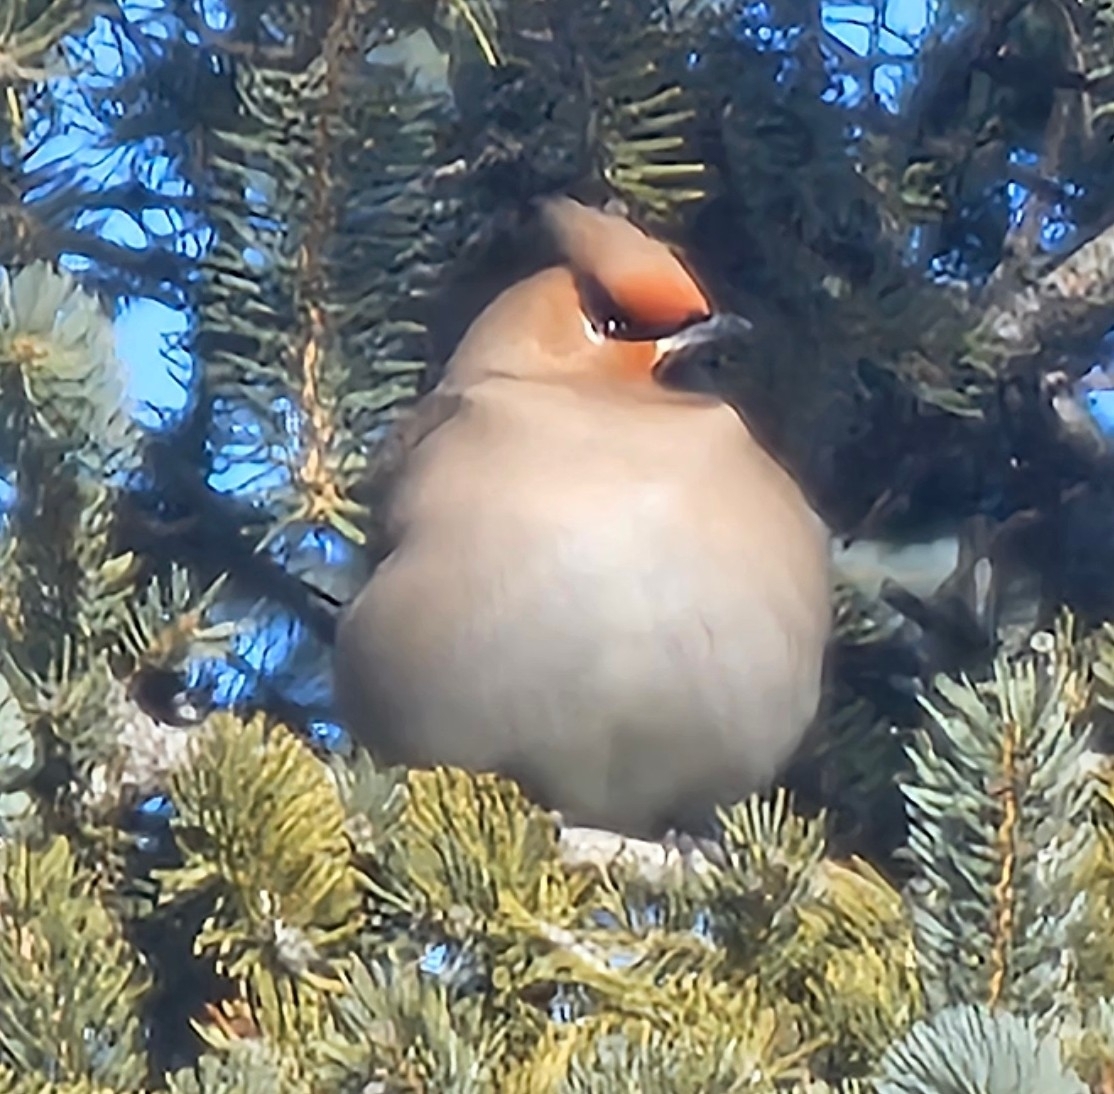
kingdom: Animalia
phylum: Chordata
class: Aves
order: Passeriformes
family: Bombycillidae
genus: Bombycilla
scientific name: Bombycilla garrulus
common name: Bohemian waxwing
